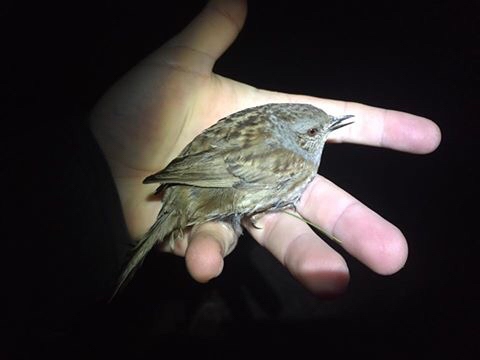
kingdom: Animalia
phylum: Chordata
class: Aves
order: Passeriformes
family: Prunellidae
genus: Prunella
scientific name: Prunella modularis
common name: Dunnock
